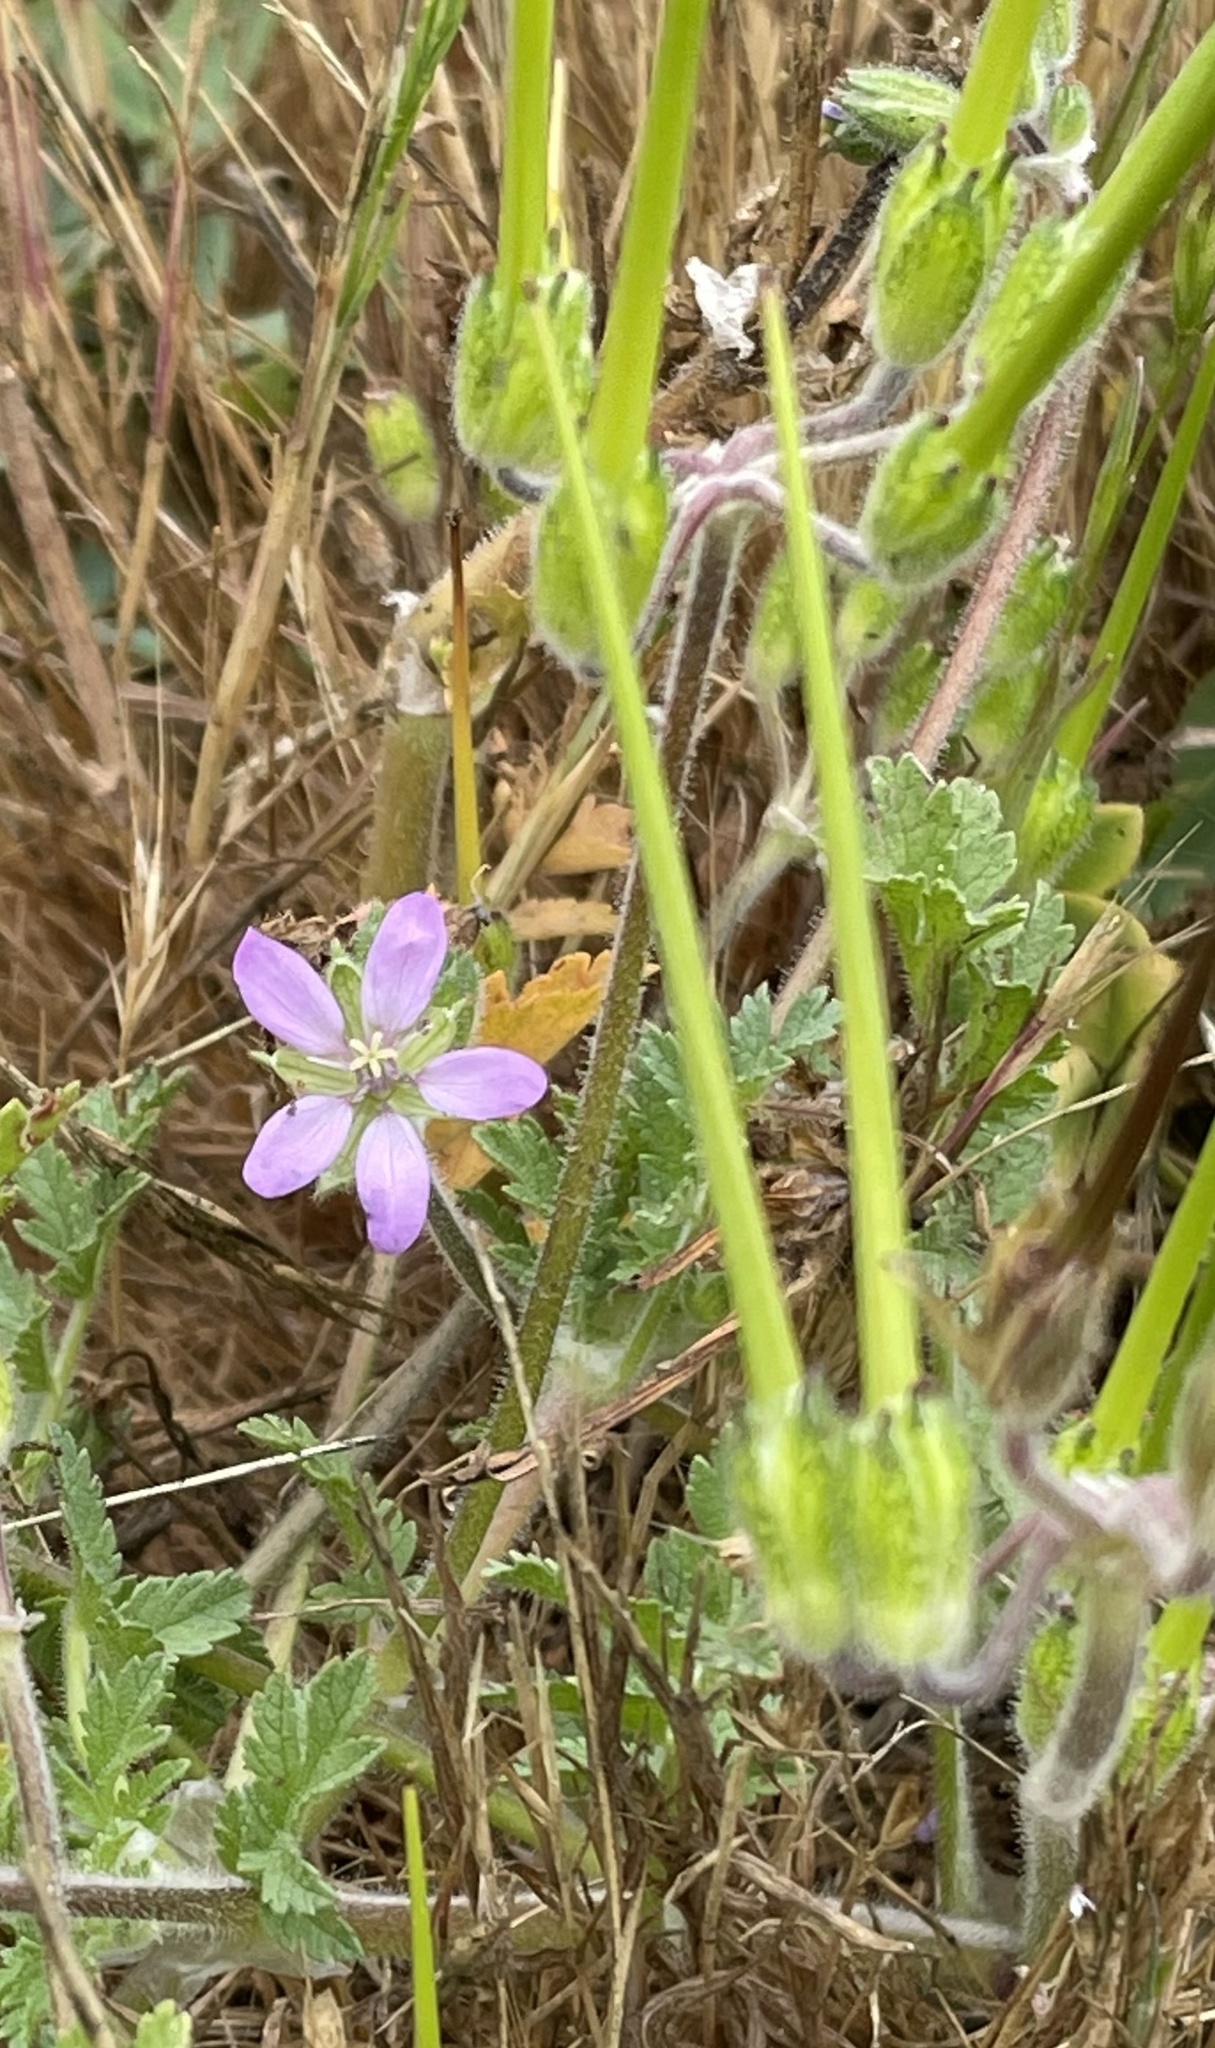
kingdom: Plantae
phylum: Tracheophyta
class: Magnoliopsida
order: Geraniales
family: Geraniaceae
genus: Erodium
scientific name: Erodium moschatum
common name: Musk stork's-bill
